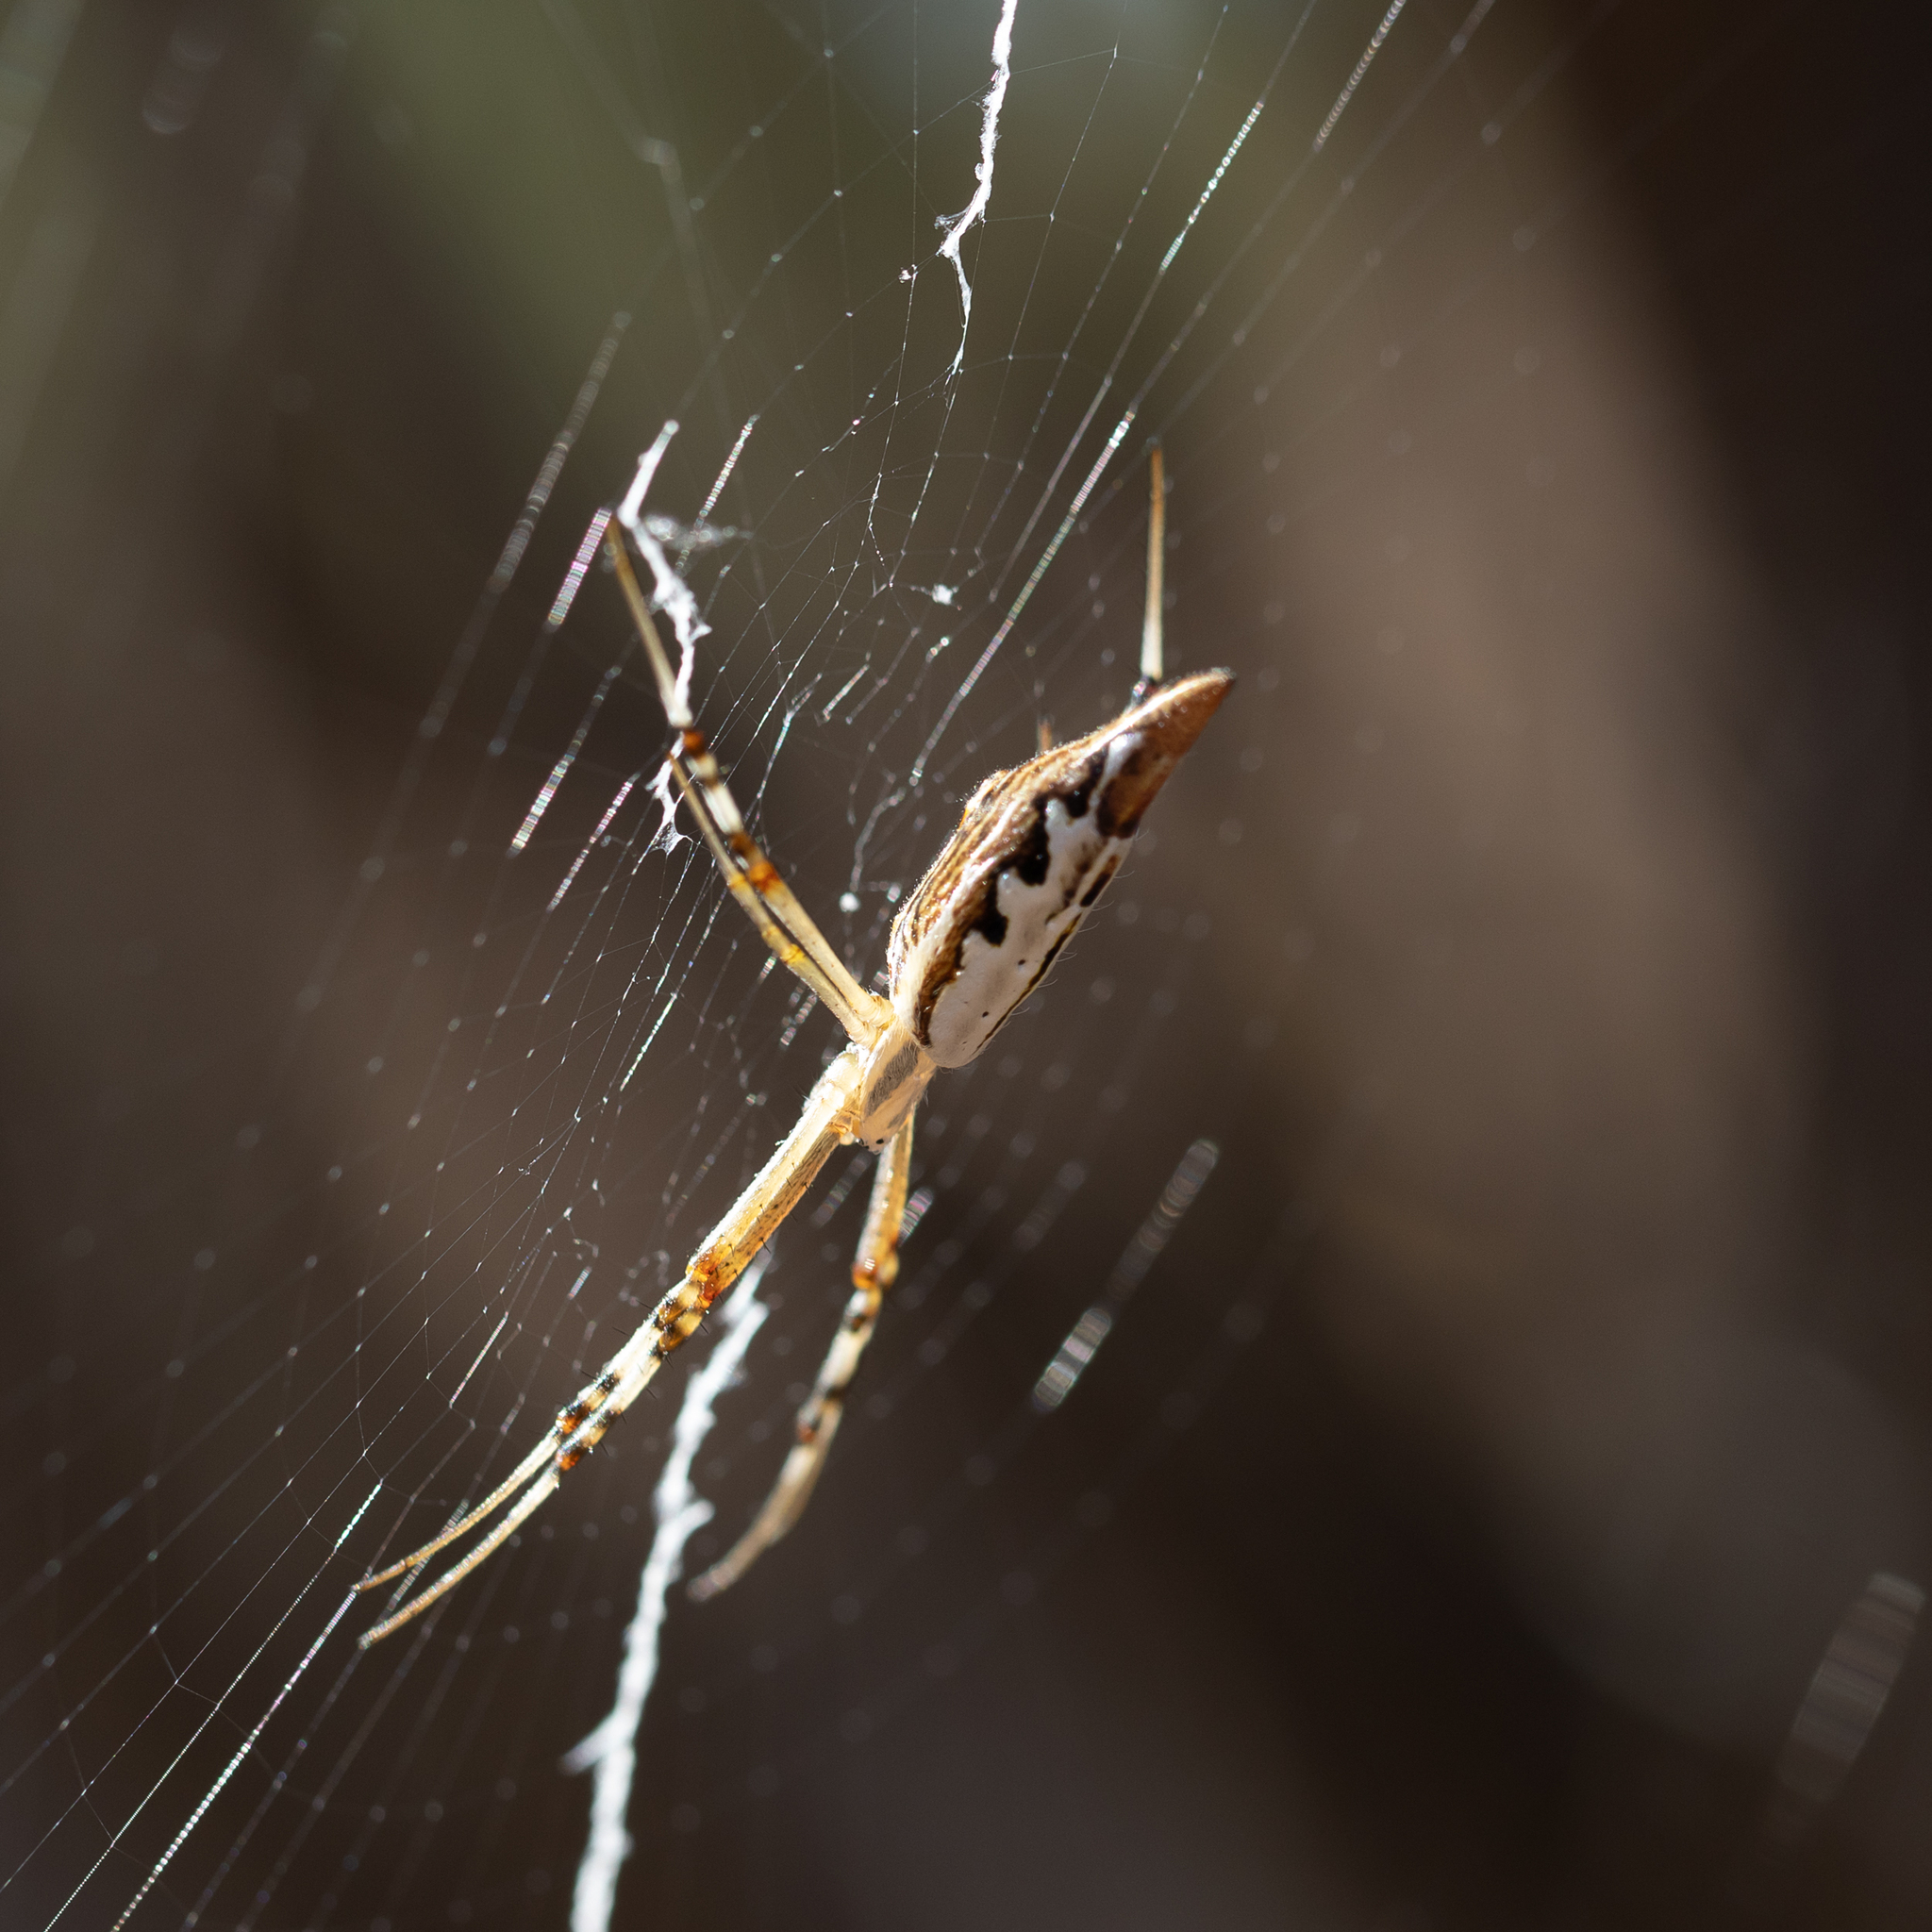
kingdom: Animalia
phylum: Arthropoda
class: Arachnida
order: Araneae
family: Araneidae
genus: Argiope
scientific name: Argiope protensa
